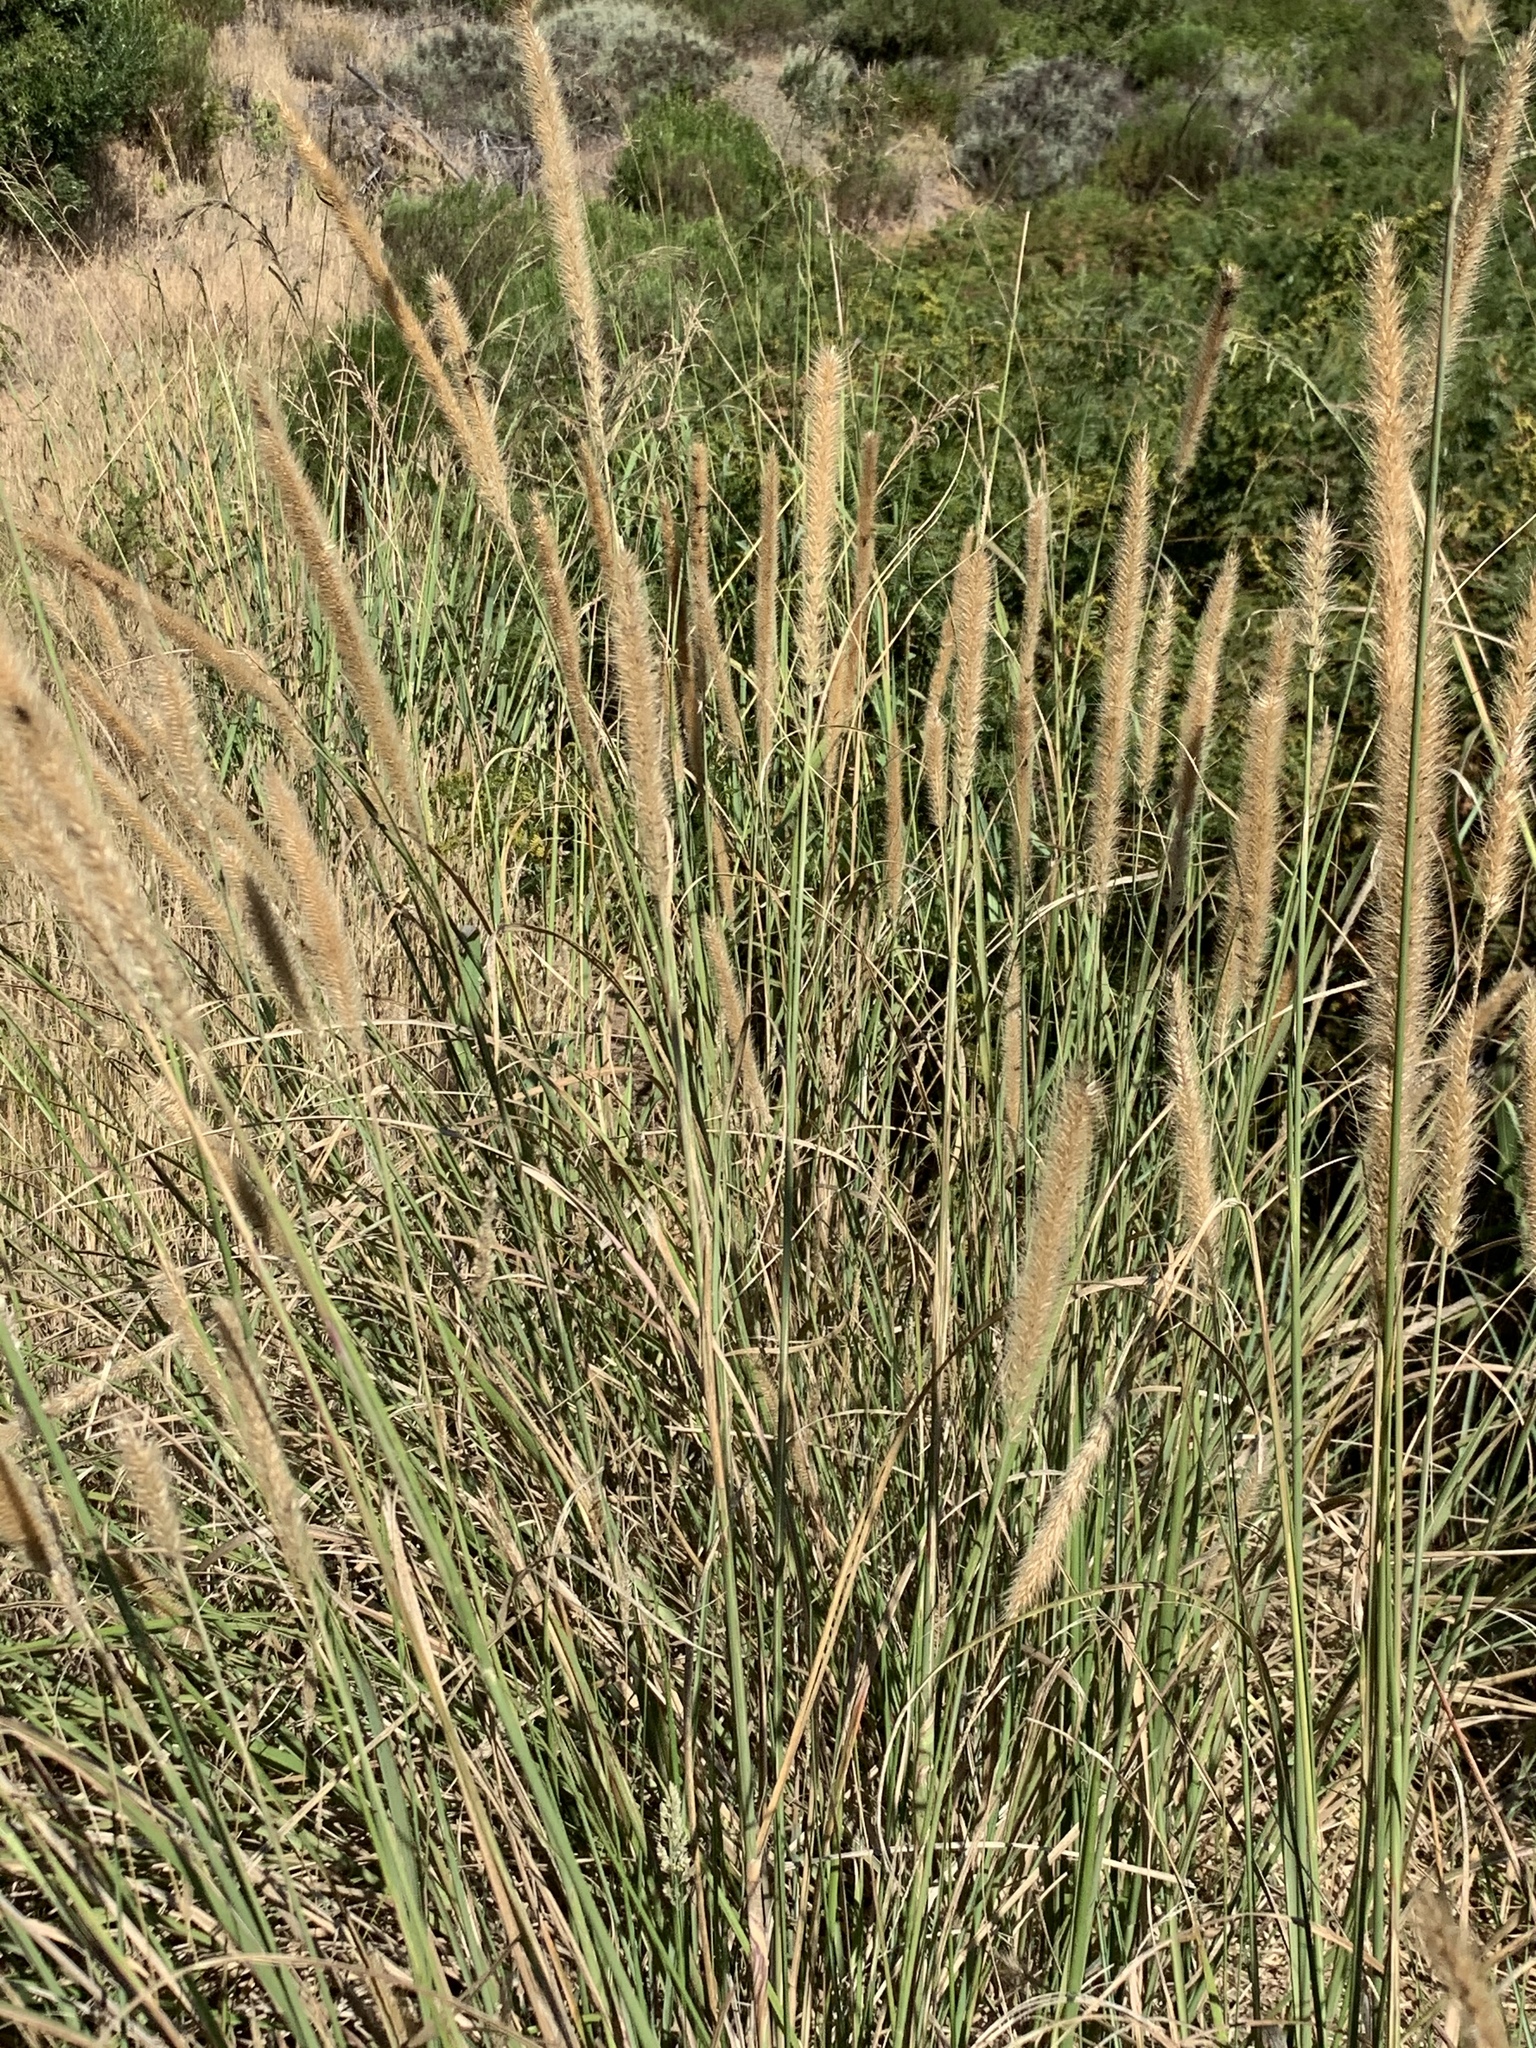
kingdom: Plantae
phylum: Tracheophyta
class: Liliopsida
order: Poales
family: Poaceae
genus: Cenchrus
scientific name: Cenchrus caudatus
